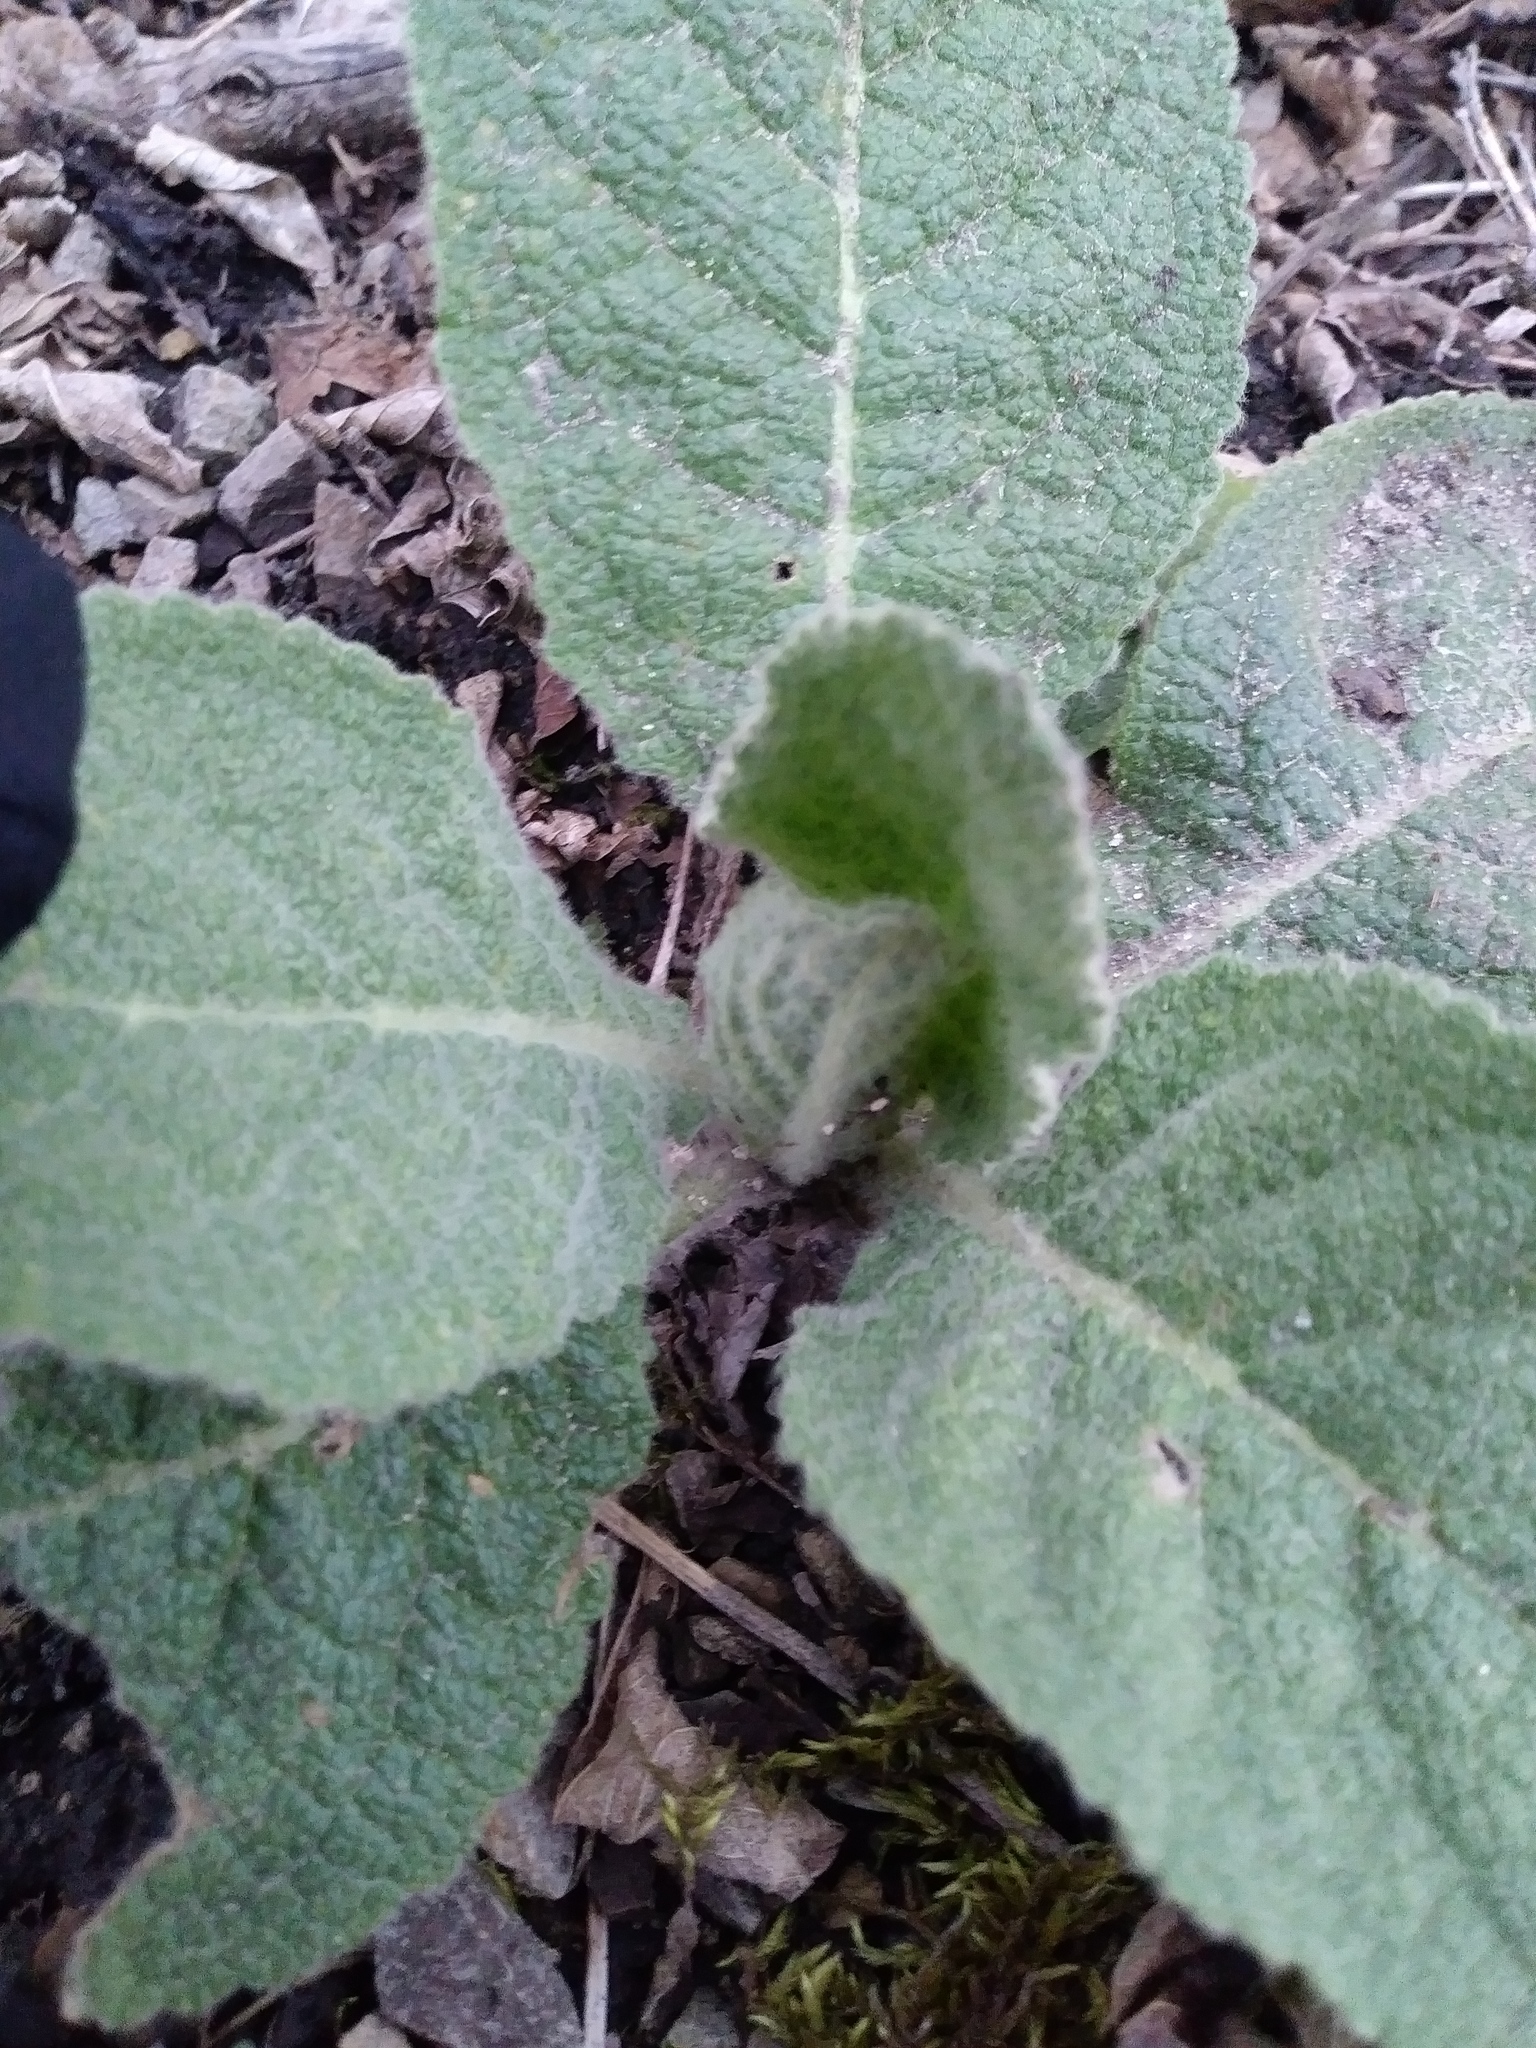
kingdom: Plantae
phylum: Tracheophyta
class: Magnoliopsida
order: Lamiales
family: Scrophulariaceae
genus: Verbascum
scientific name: Verbascum thapsus
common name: Common mullein
